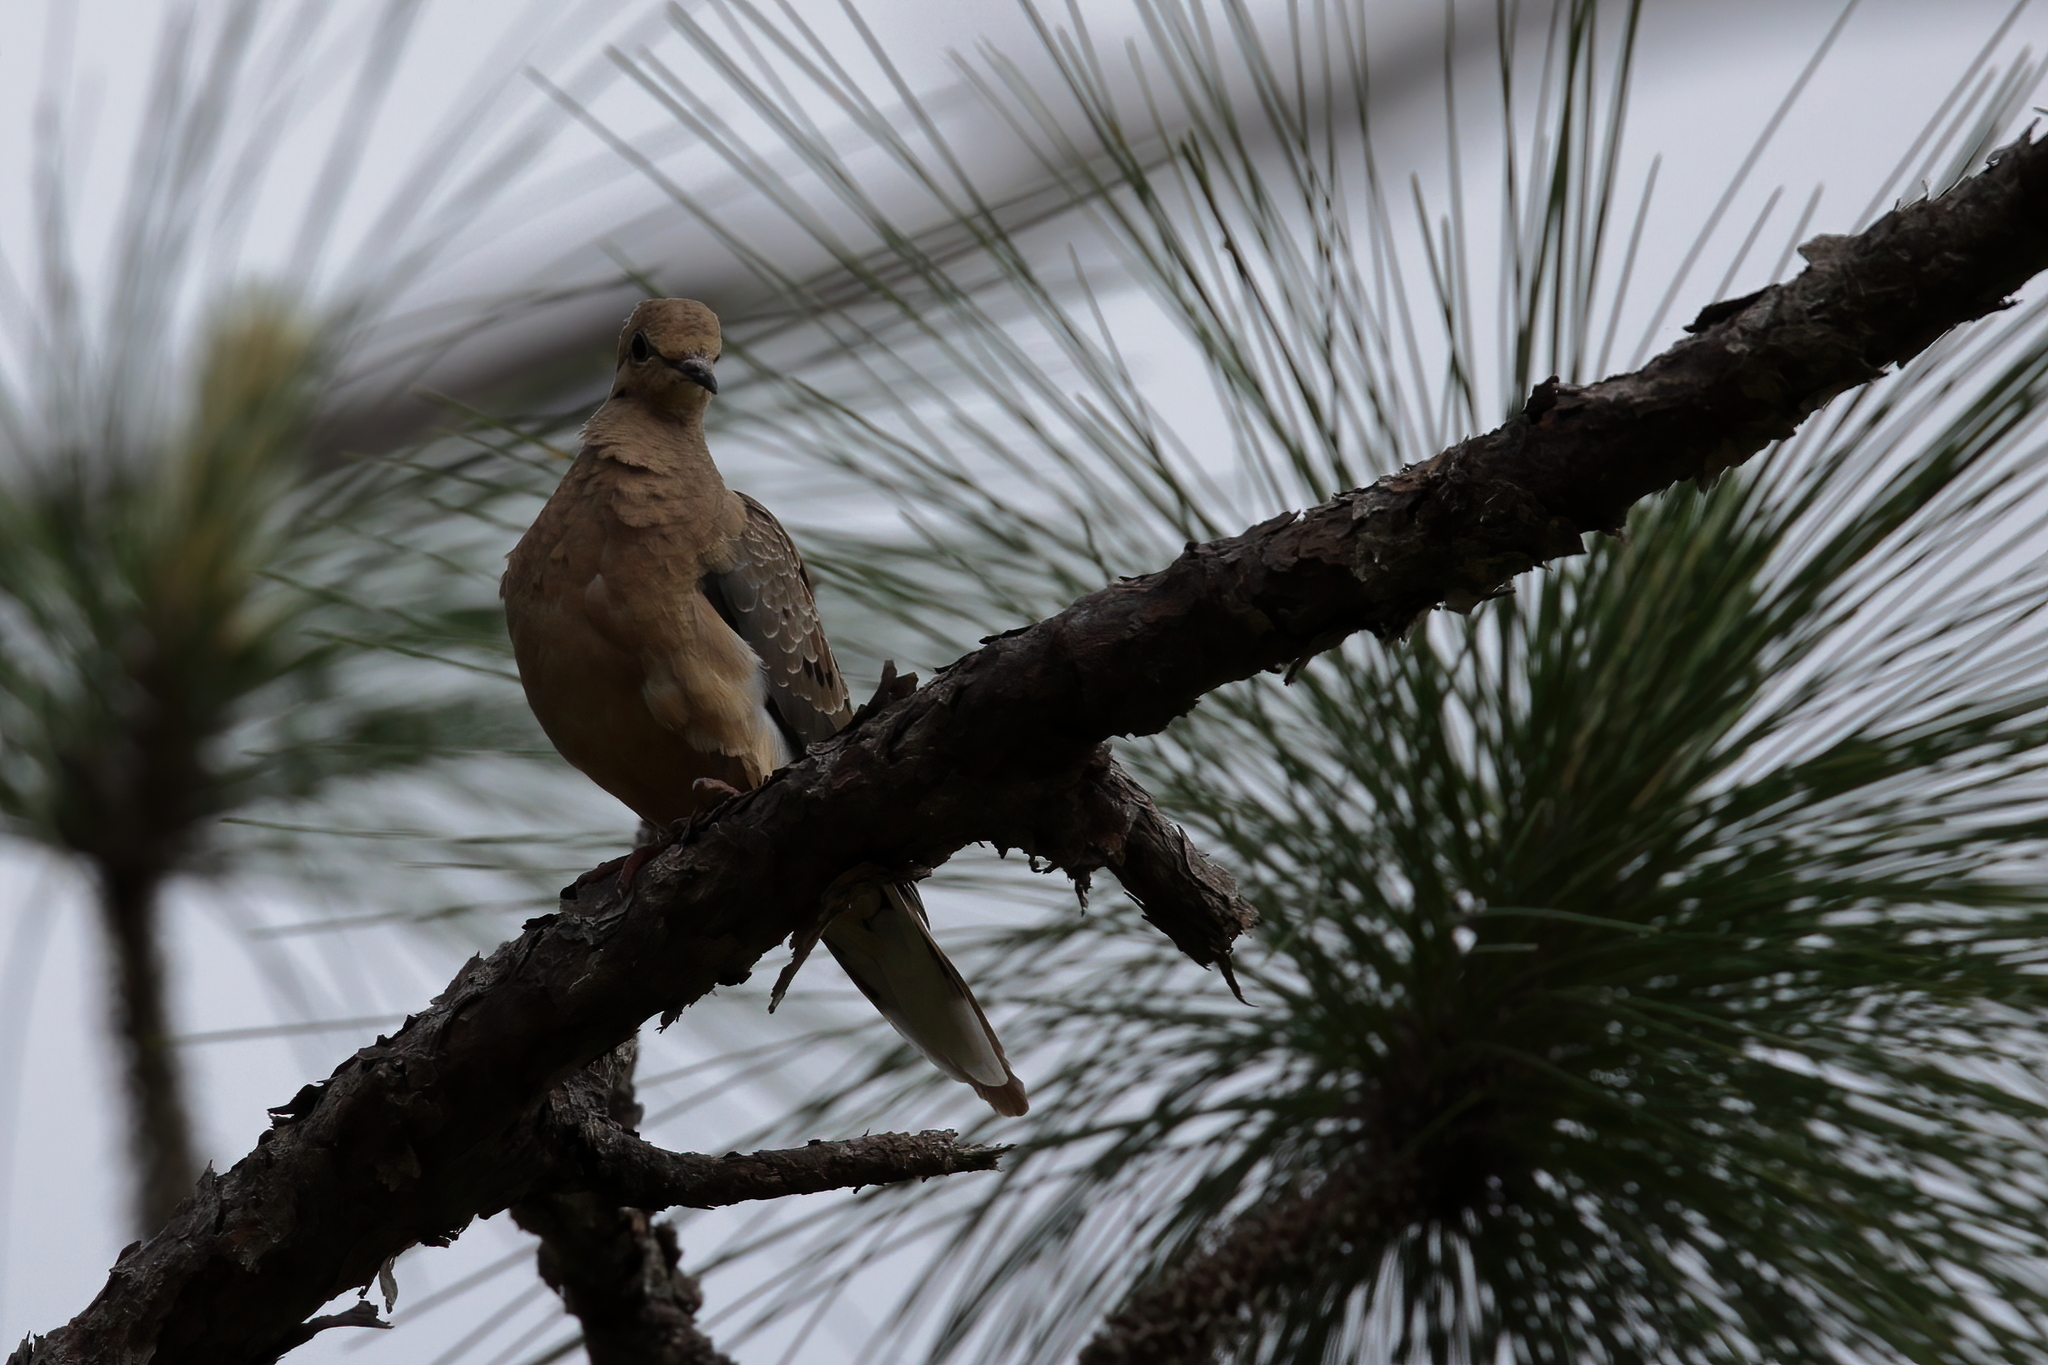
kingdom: Animalia
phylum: Chordata
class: Aves
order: Columbiformes
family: Columbidae
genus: Zenaida
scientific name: Zenaida macroura
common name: Mourning dove
